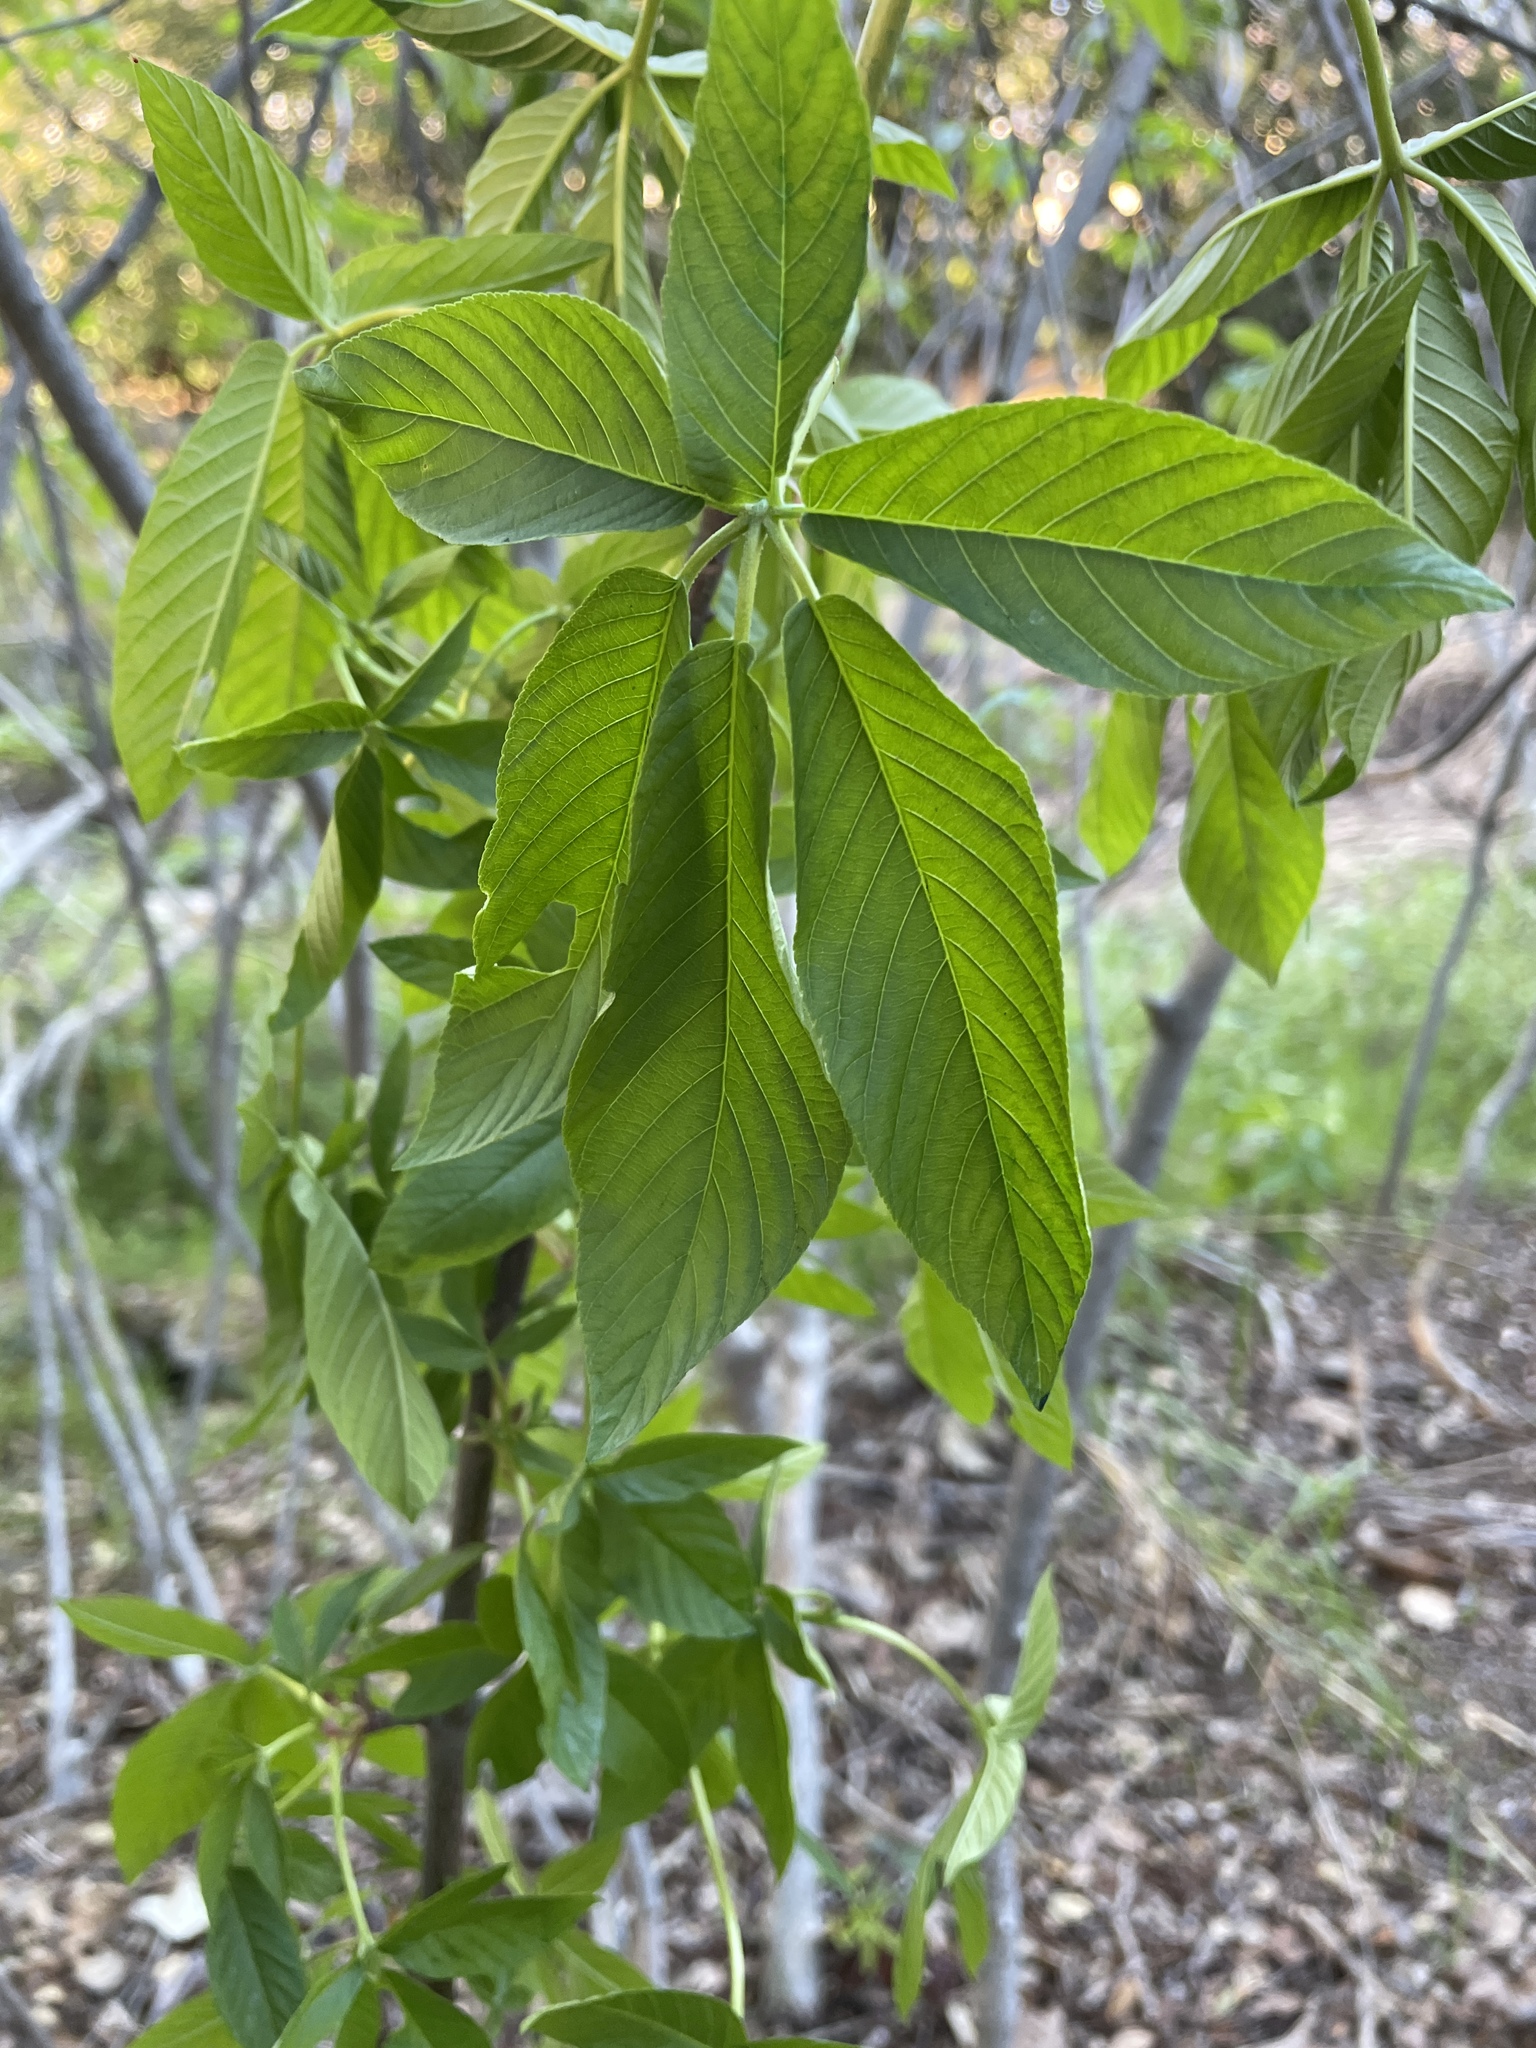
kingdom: Plantae
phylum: Tracheophyta
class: Magnoliopsida
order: Sapindales
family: Sapindaceae
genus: Aesculus
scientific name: Aesculus californica
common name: California buckeye
